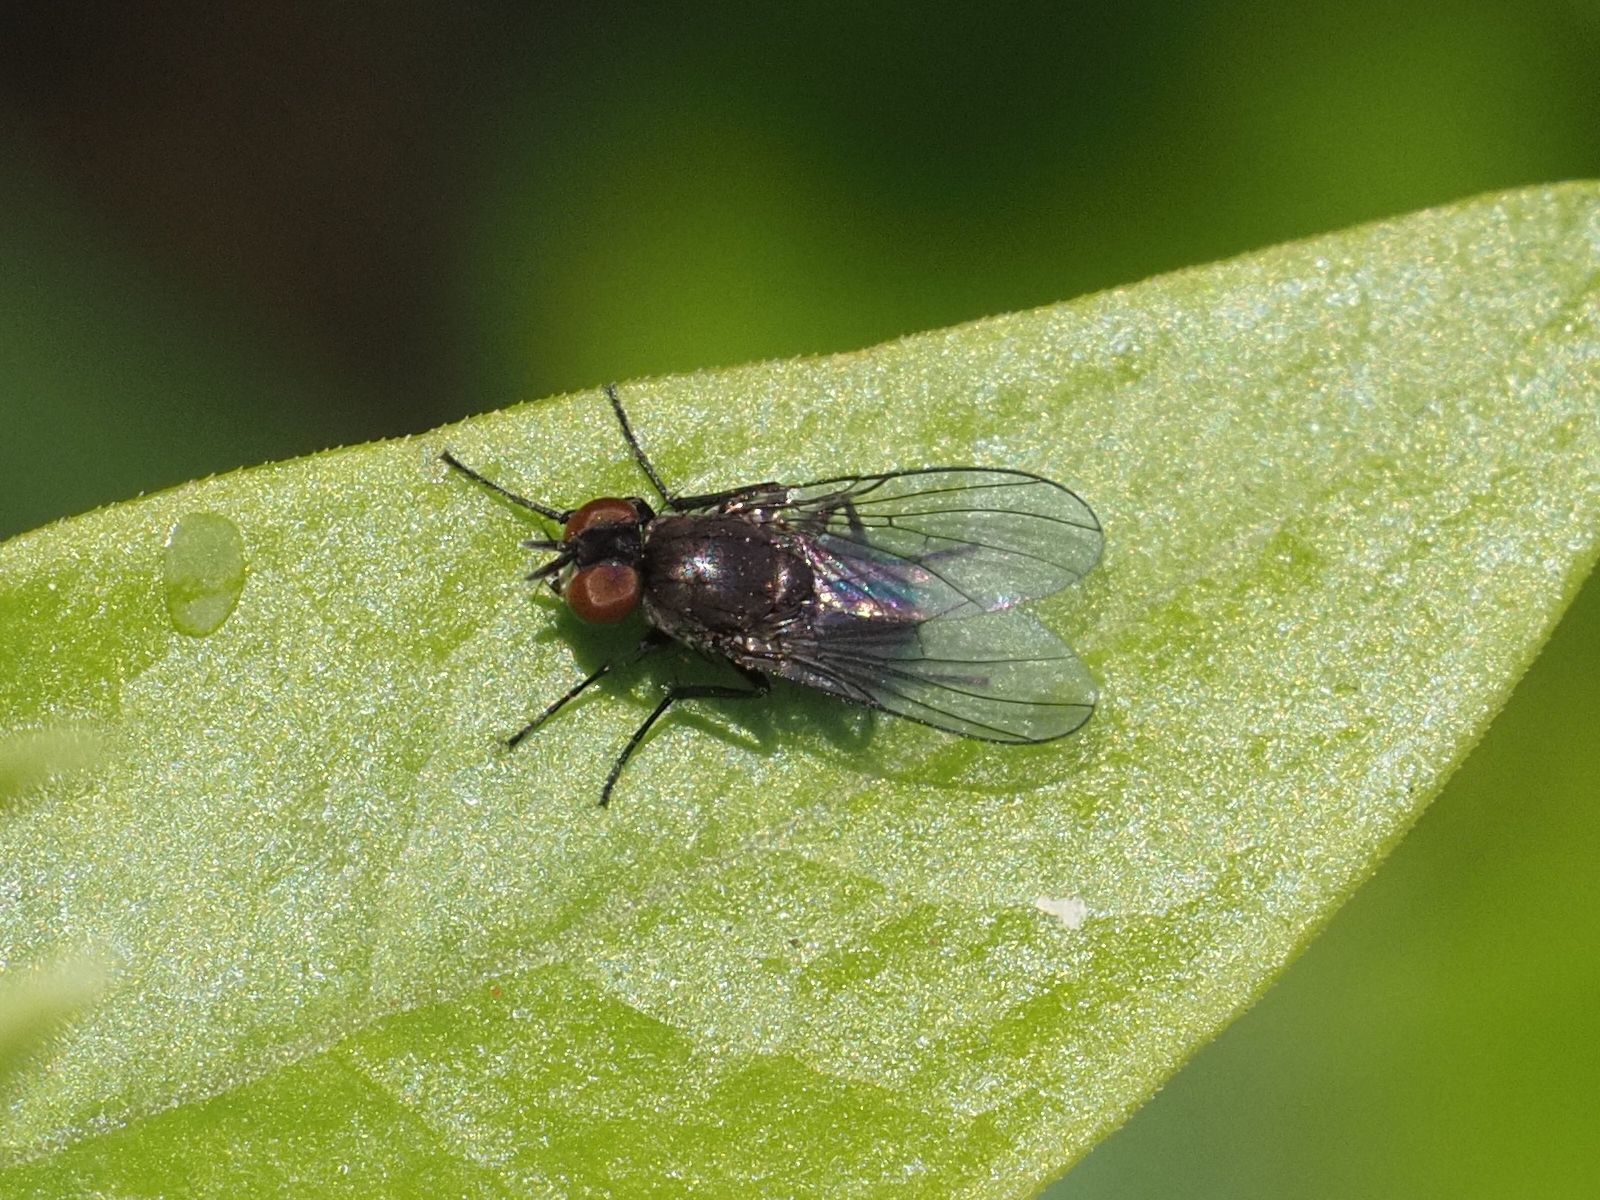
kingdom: Animalia
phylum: Arthropoda
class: Insecta
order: Diptera
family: Muscidae
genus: Coenosia
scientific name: Coenosia agromyzina
